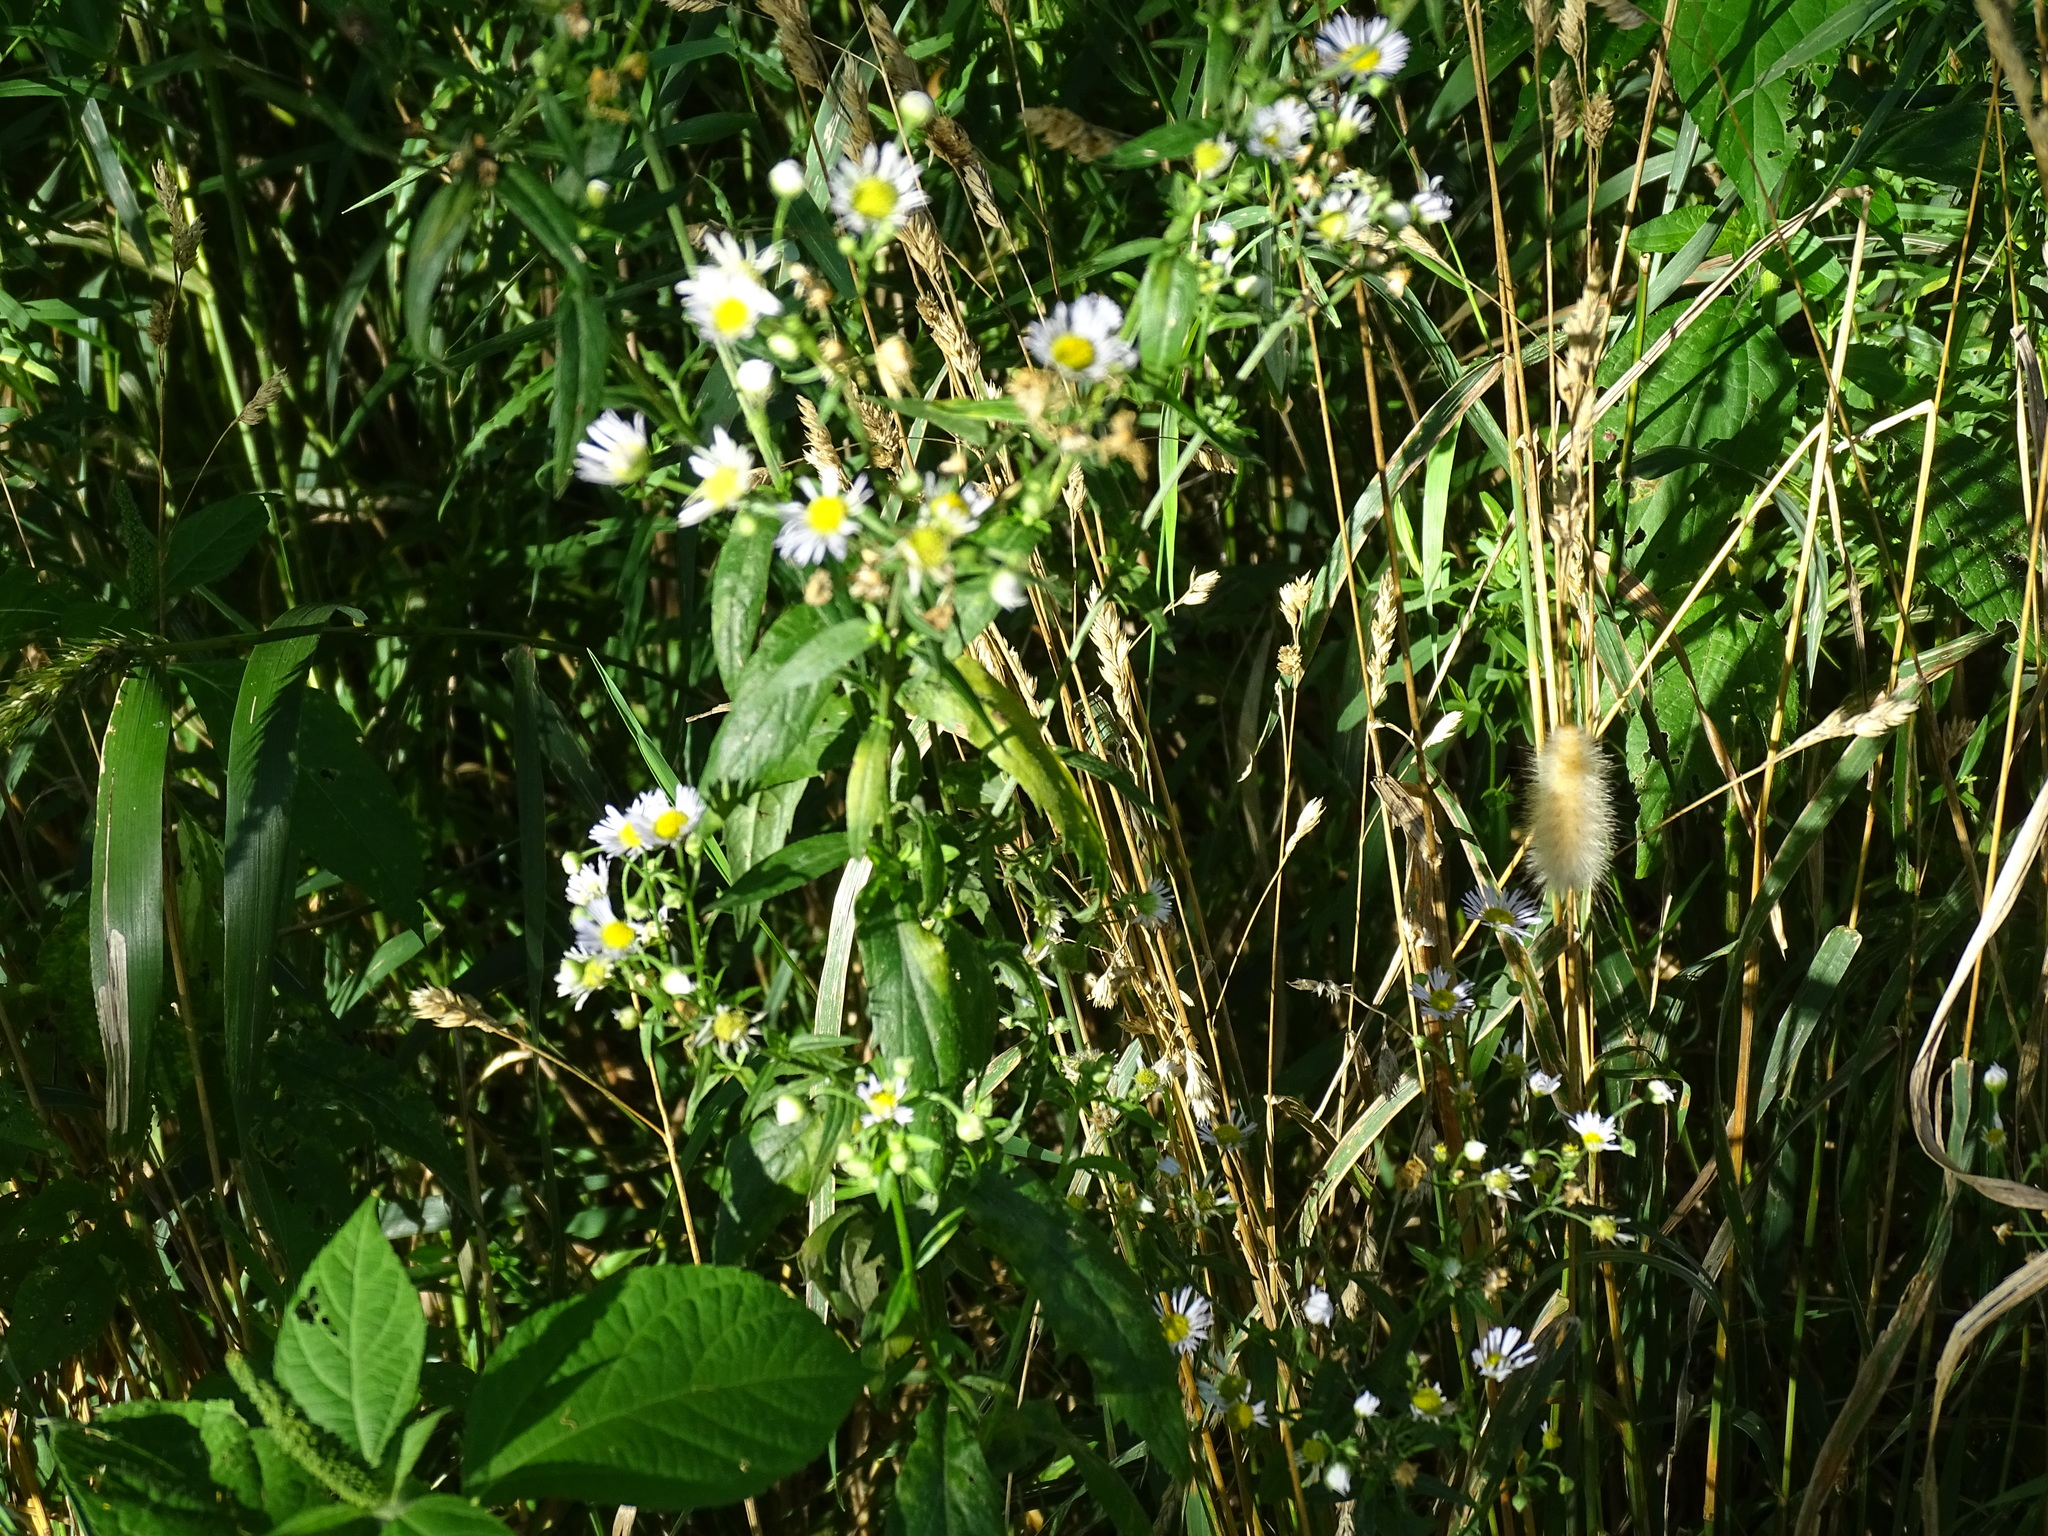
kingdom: Plantae
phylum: Tracheophyta
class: Magnoliopsida
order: Asterales
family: Asteraceae
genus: Erigeron
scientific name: Erigeron annuus
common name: Tall fleabane
